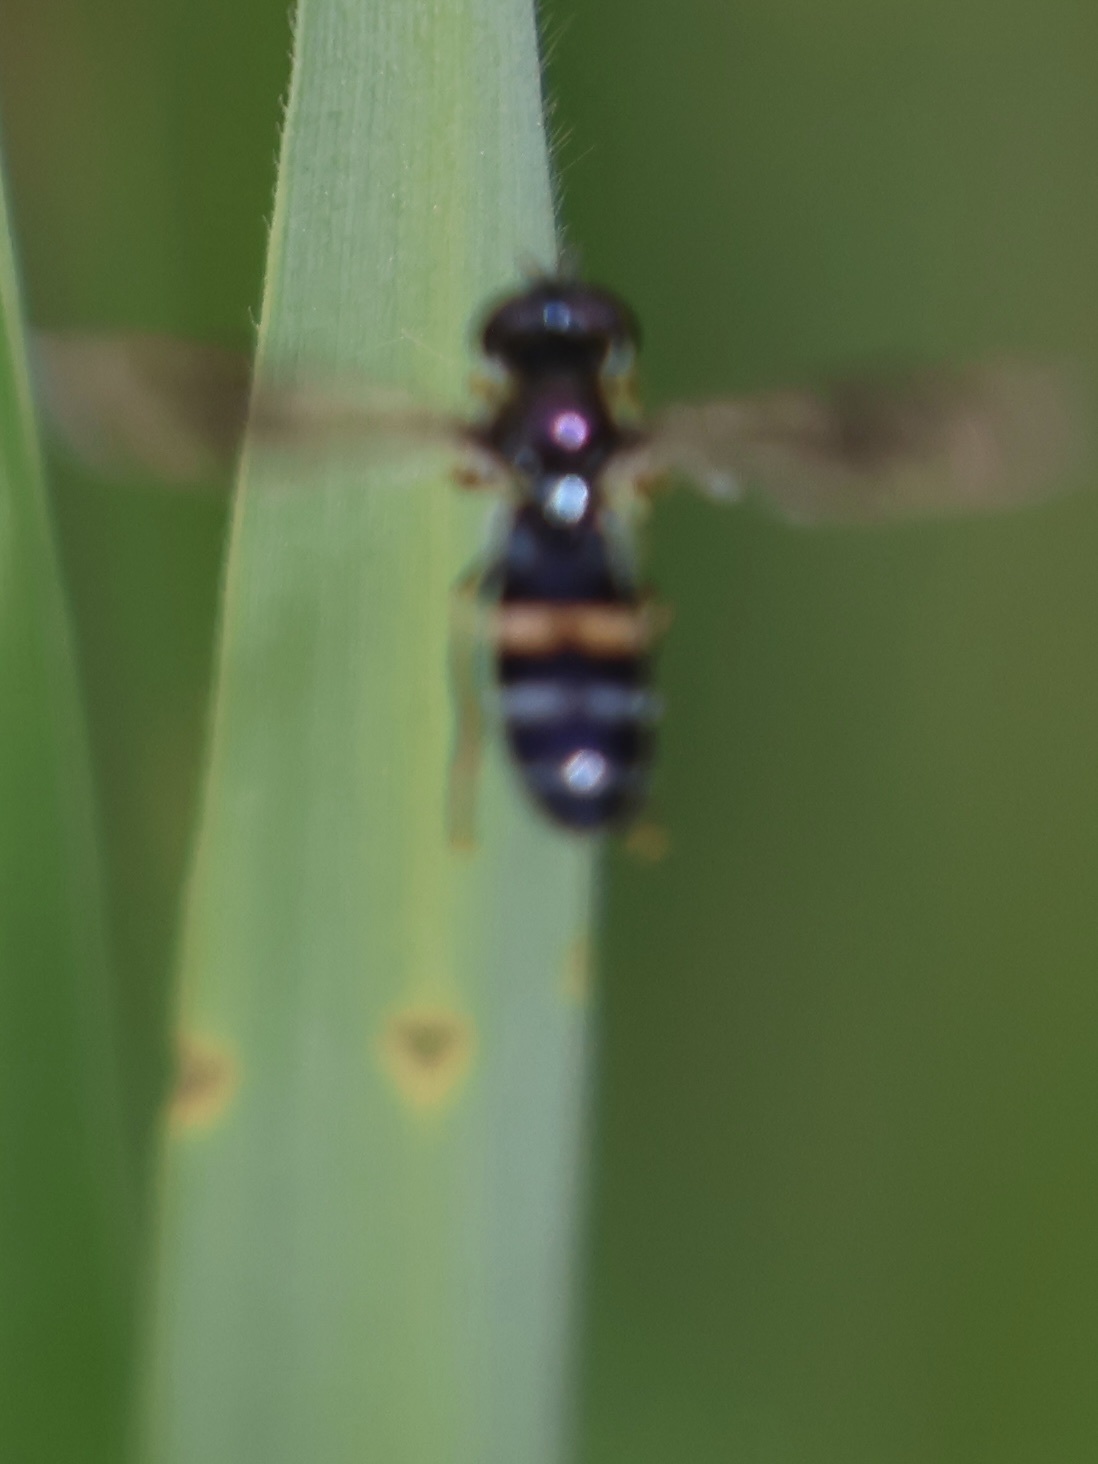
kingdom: Animalia
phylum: Arthropoda
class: Insecta
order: Diptera
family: Syrphidae
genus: Pyrophaena
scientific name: Pyrophaena rosarum
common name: Fourspot sedgesitter
